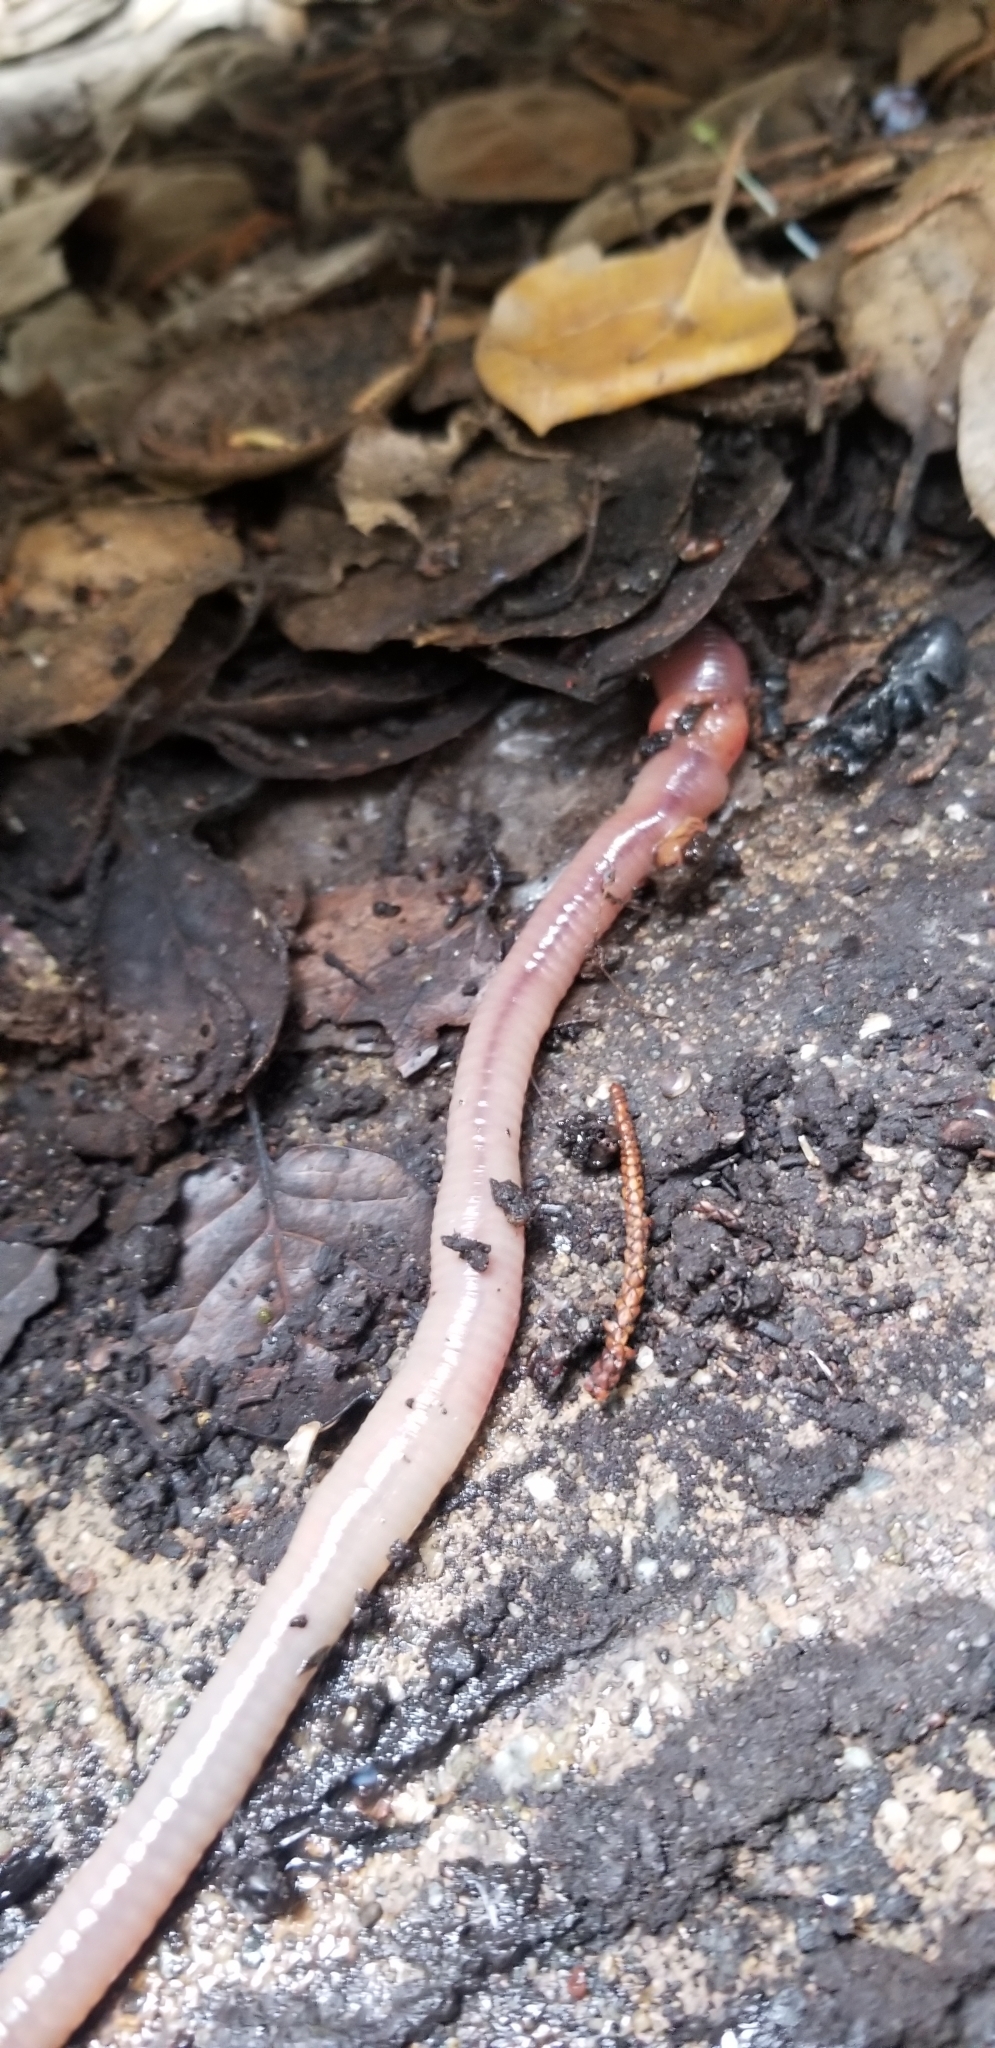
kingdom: Animalia
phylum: Annelida
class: Clitellata
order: Crassiclitellata
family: Lumbricidae
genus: Lumbricus
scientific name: Lumbricus terrestris
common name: Common earthworm
